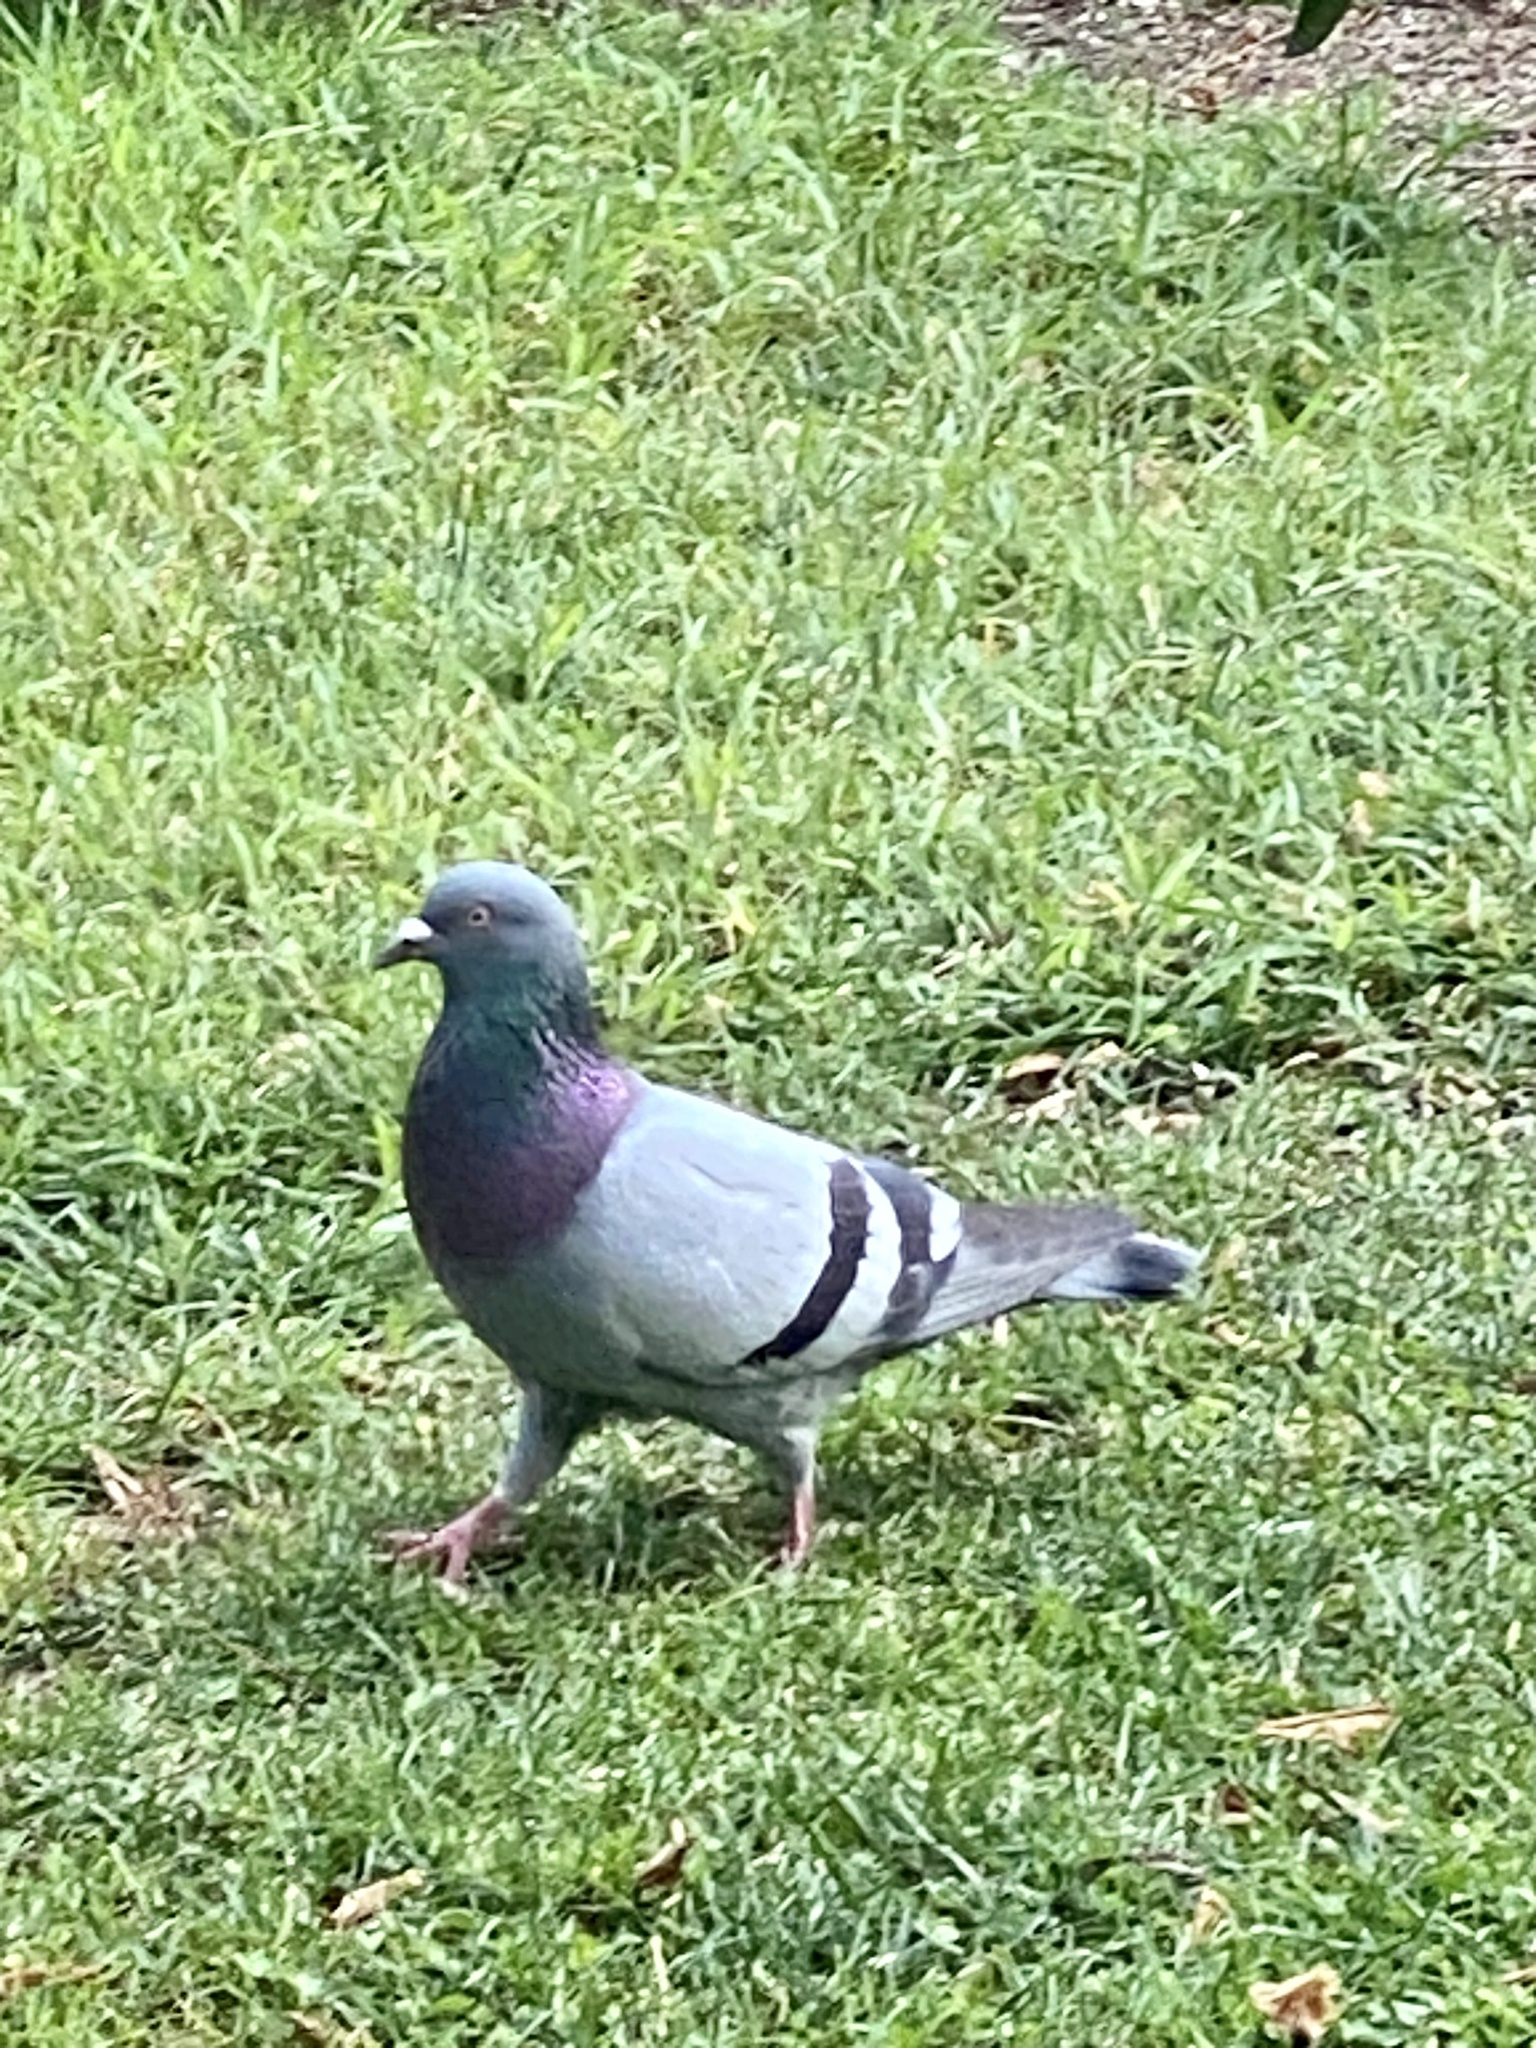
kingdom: Animalia
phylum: Chordata
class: Aves
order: Columbiformes
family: Columbidae
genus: Columba
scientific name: Columba livia
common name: Rock pigeon
